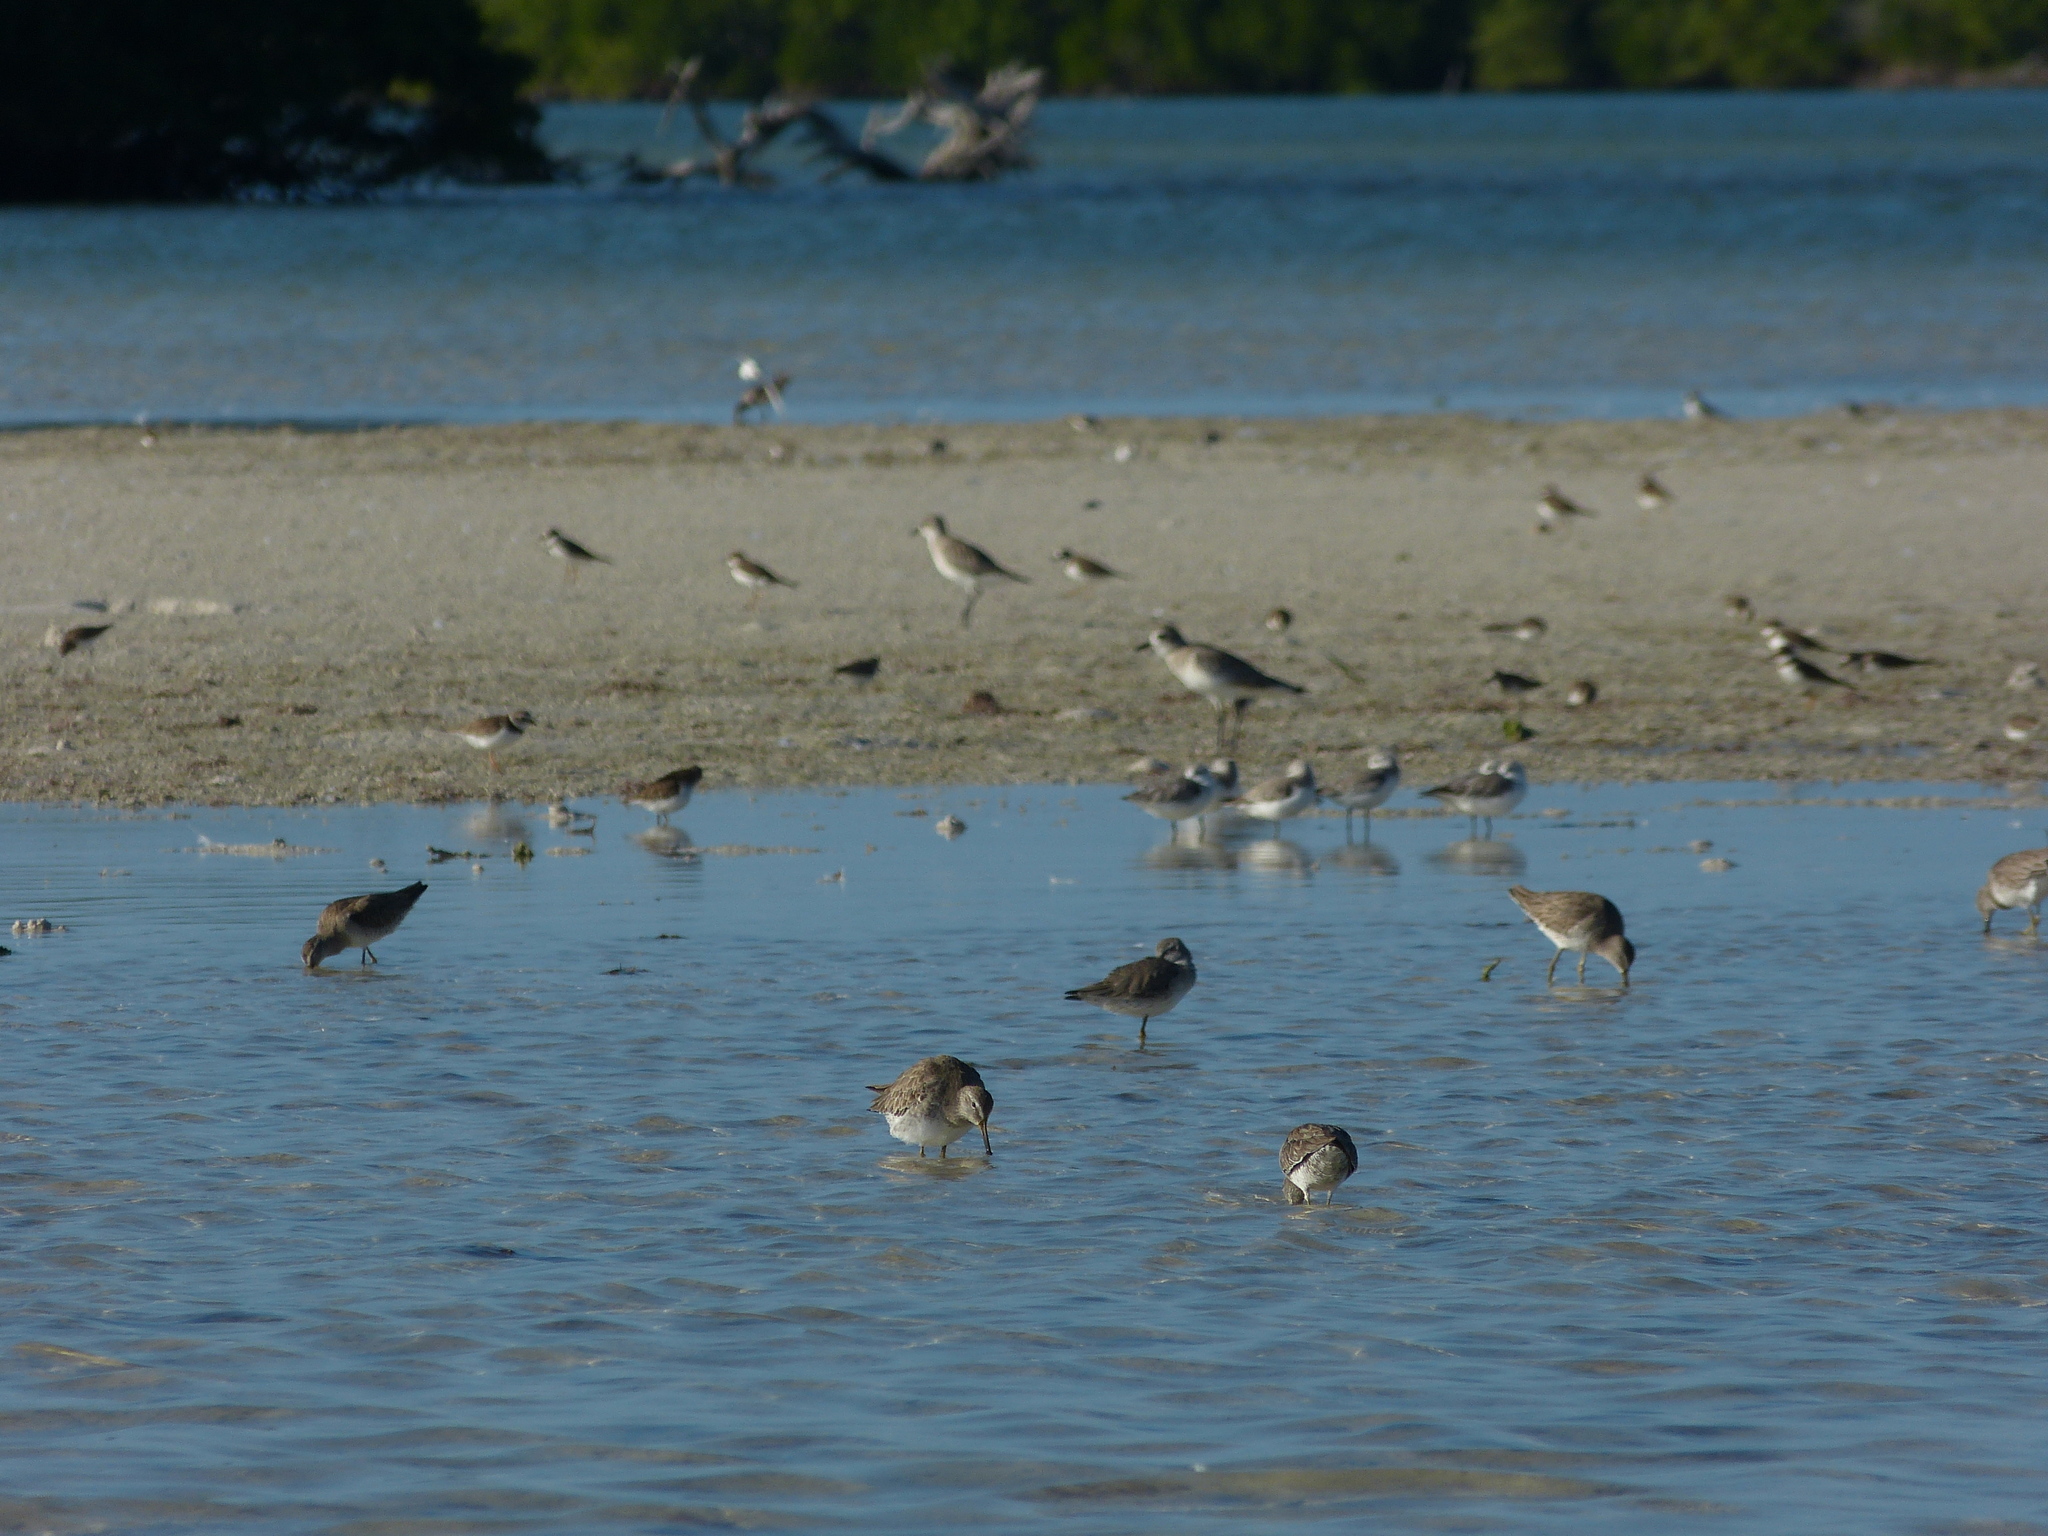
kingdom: Animalia
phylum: Chordata
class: Aves
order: Charadriiformes
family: Scolopacidae
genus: Limnodromus
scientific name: Limnodromus griseus
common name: Short-billed dowitcher
